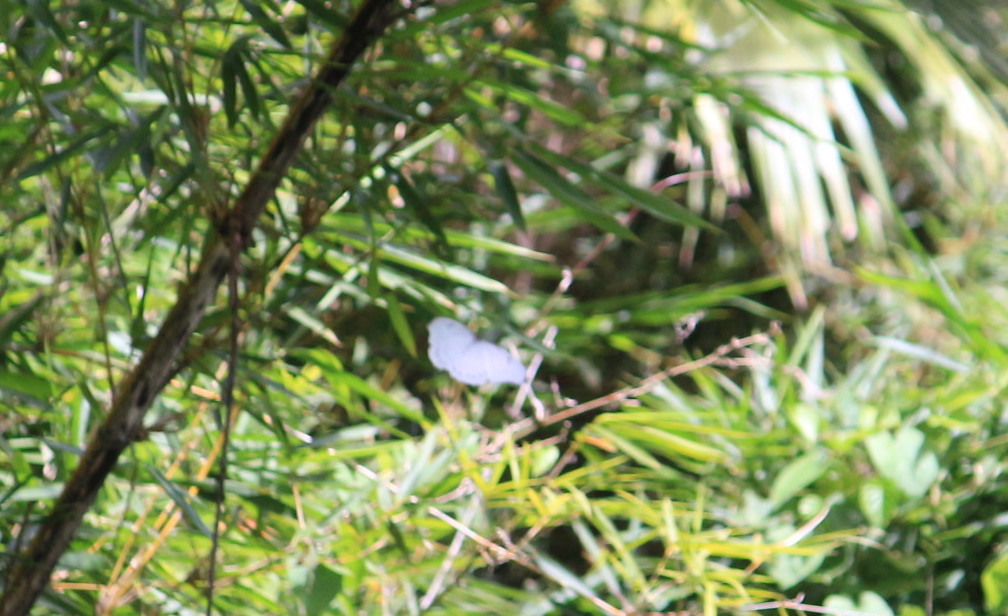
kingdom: Animalia
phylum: Arthropoda
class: Insecta
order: Lepidoptera
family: Nymphalidae
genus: Morpho
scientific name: Morpho polyphemus
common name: White morpho
